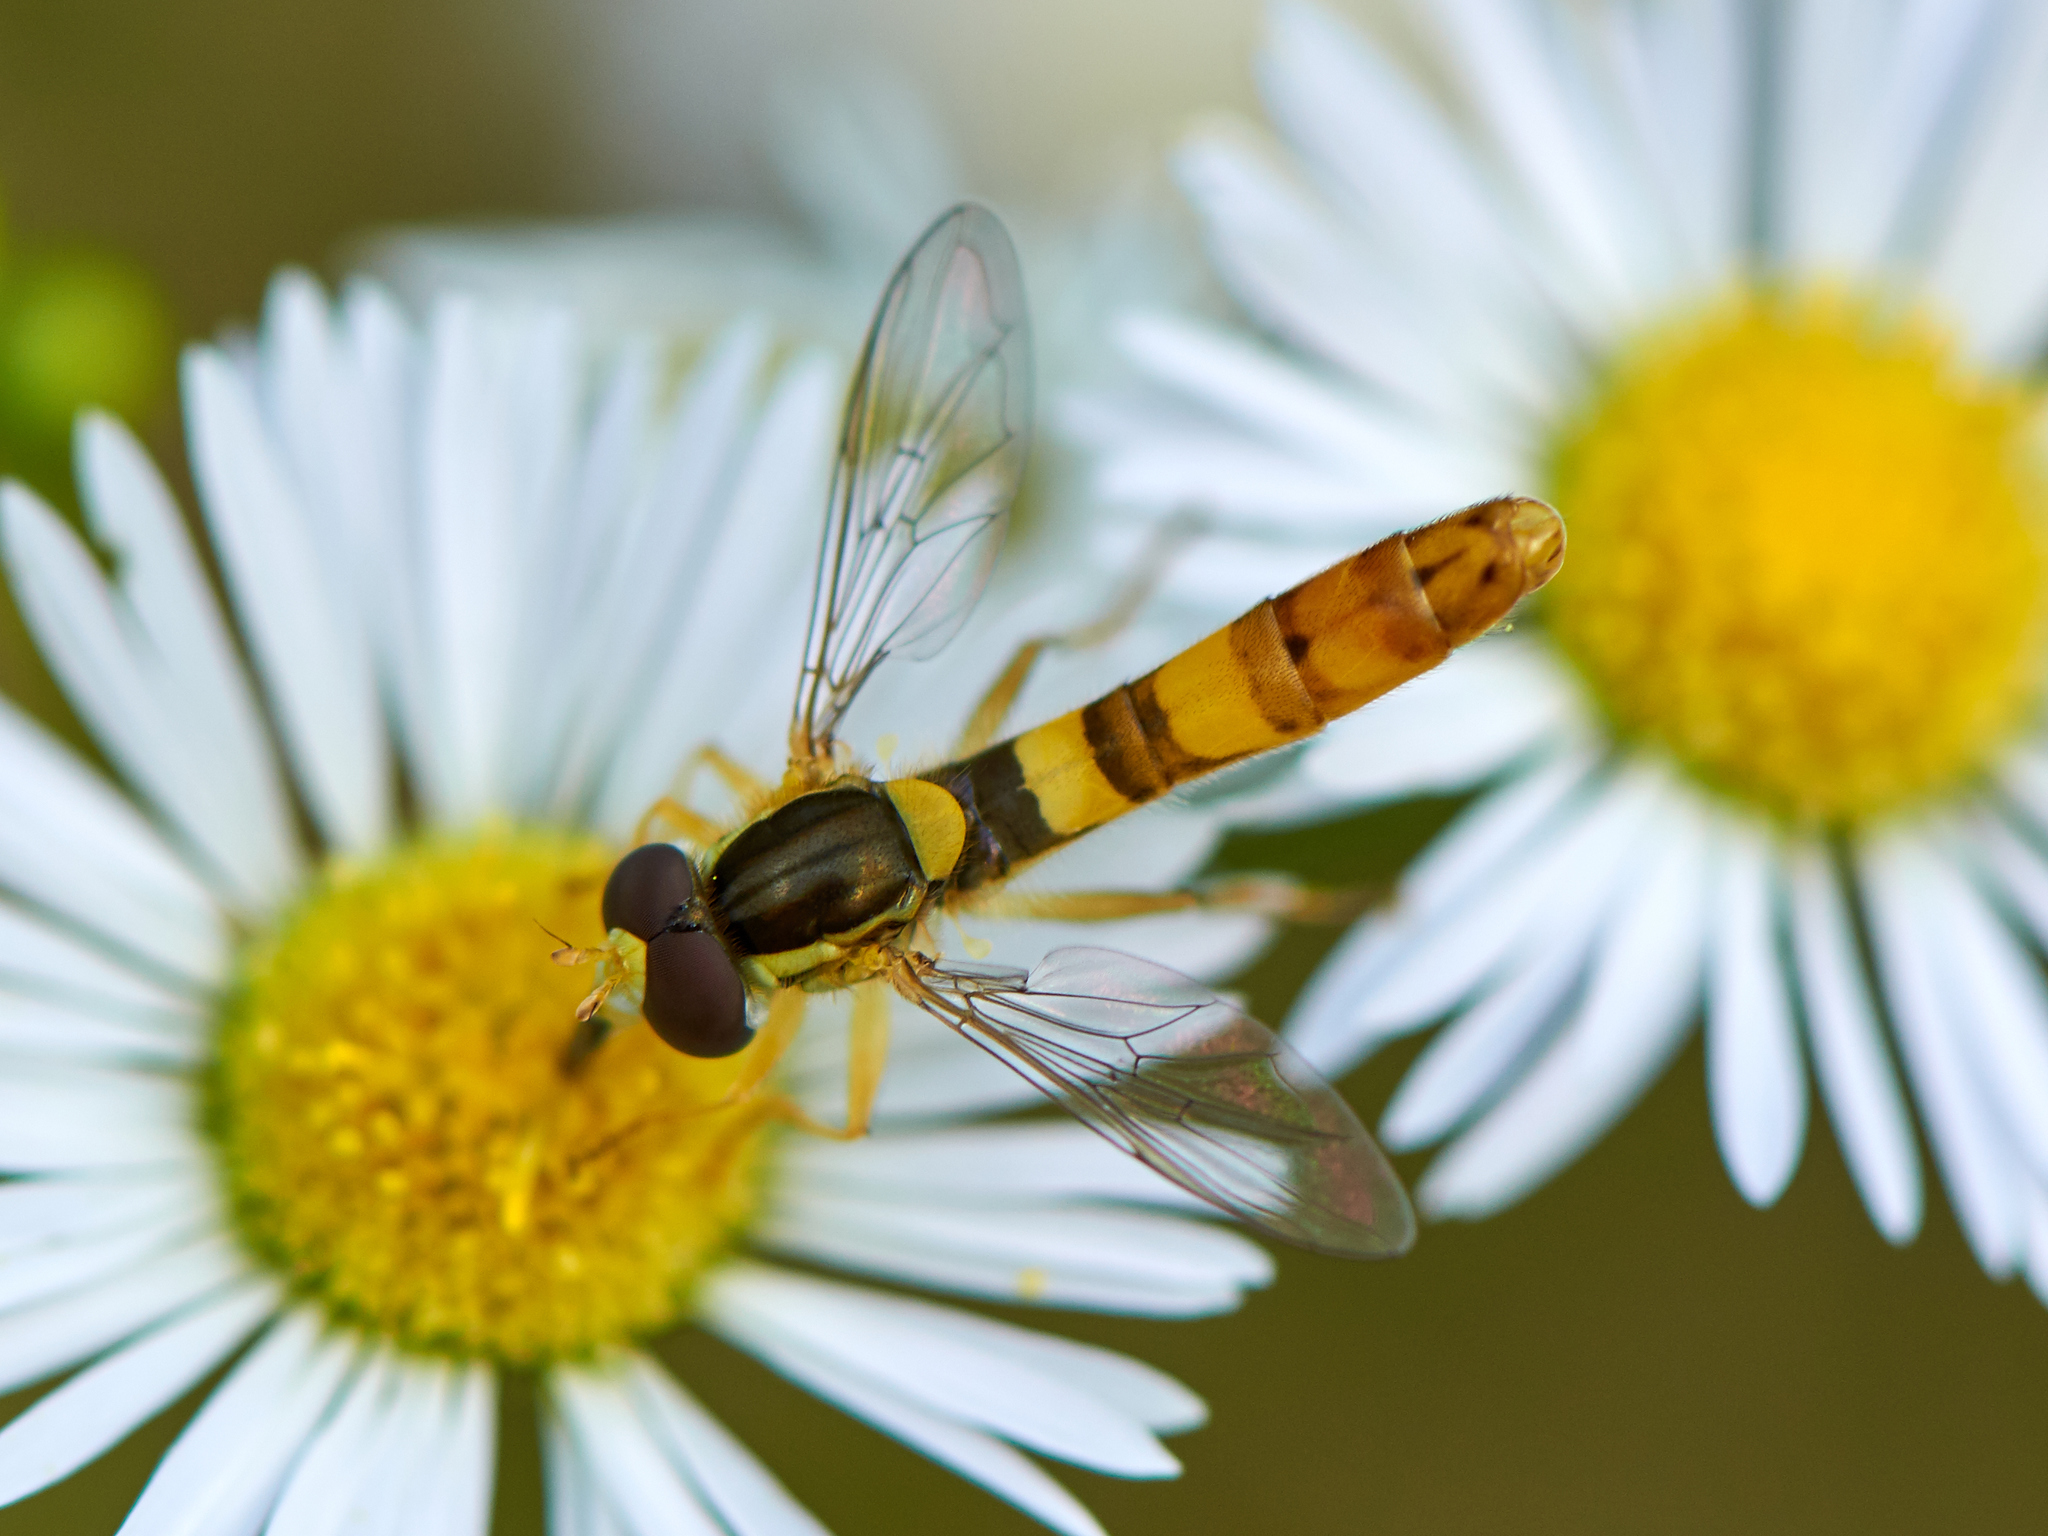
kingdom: Animalia
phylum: Arthropoda
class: Insecta
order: Diptera
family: Syrphidae
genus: Sphaerophoria
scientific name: Sphaerophoria scripta
